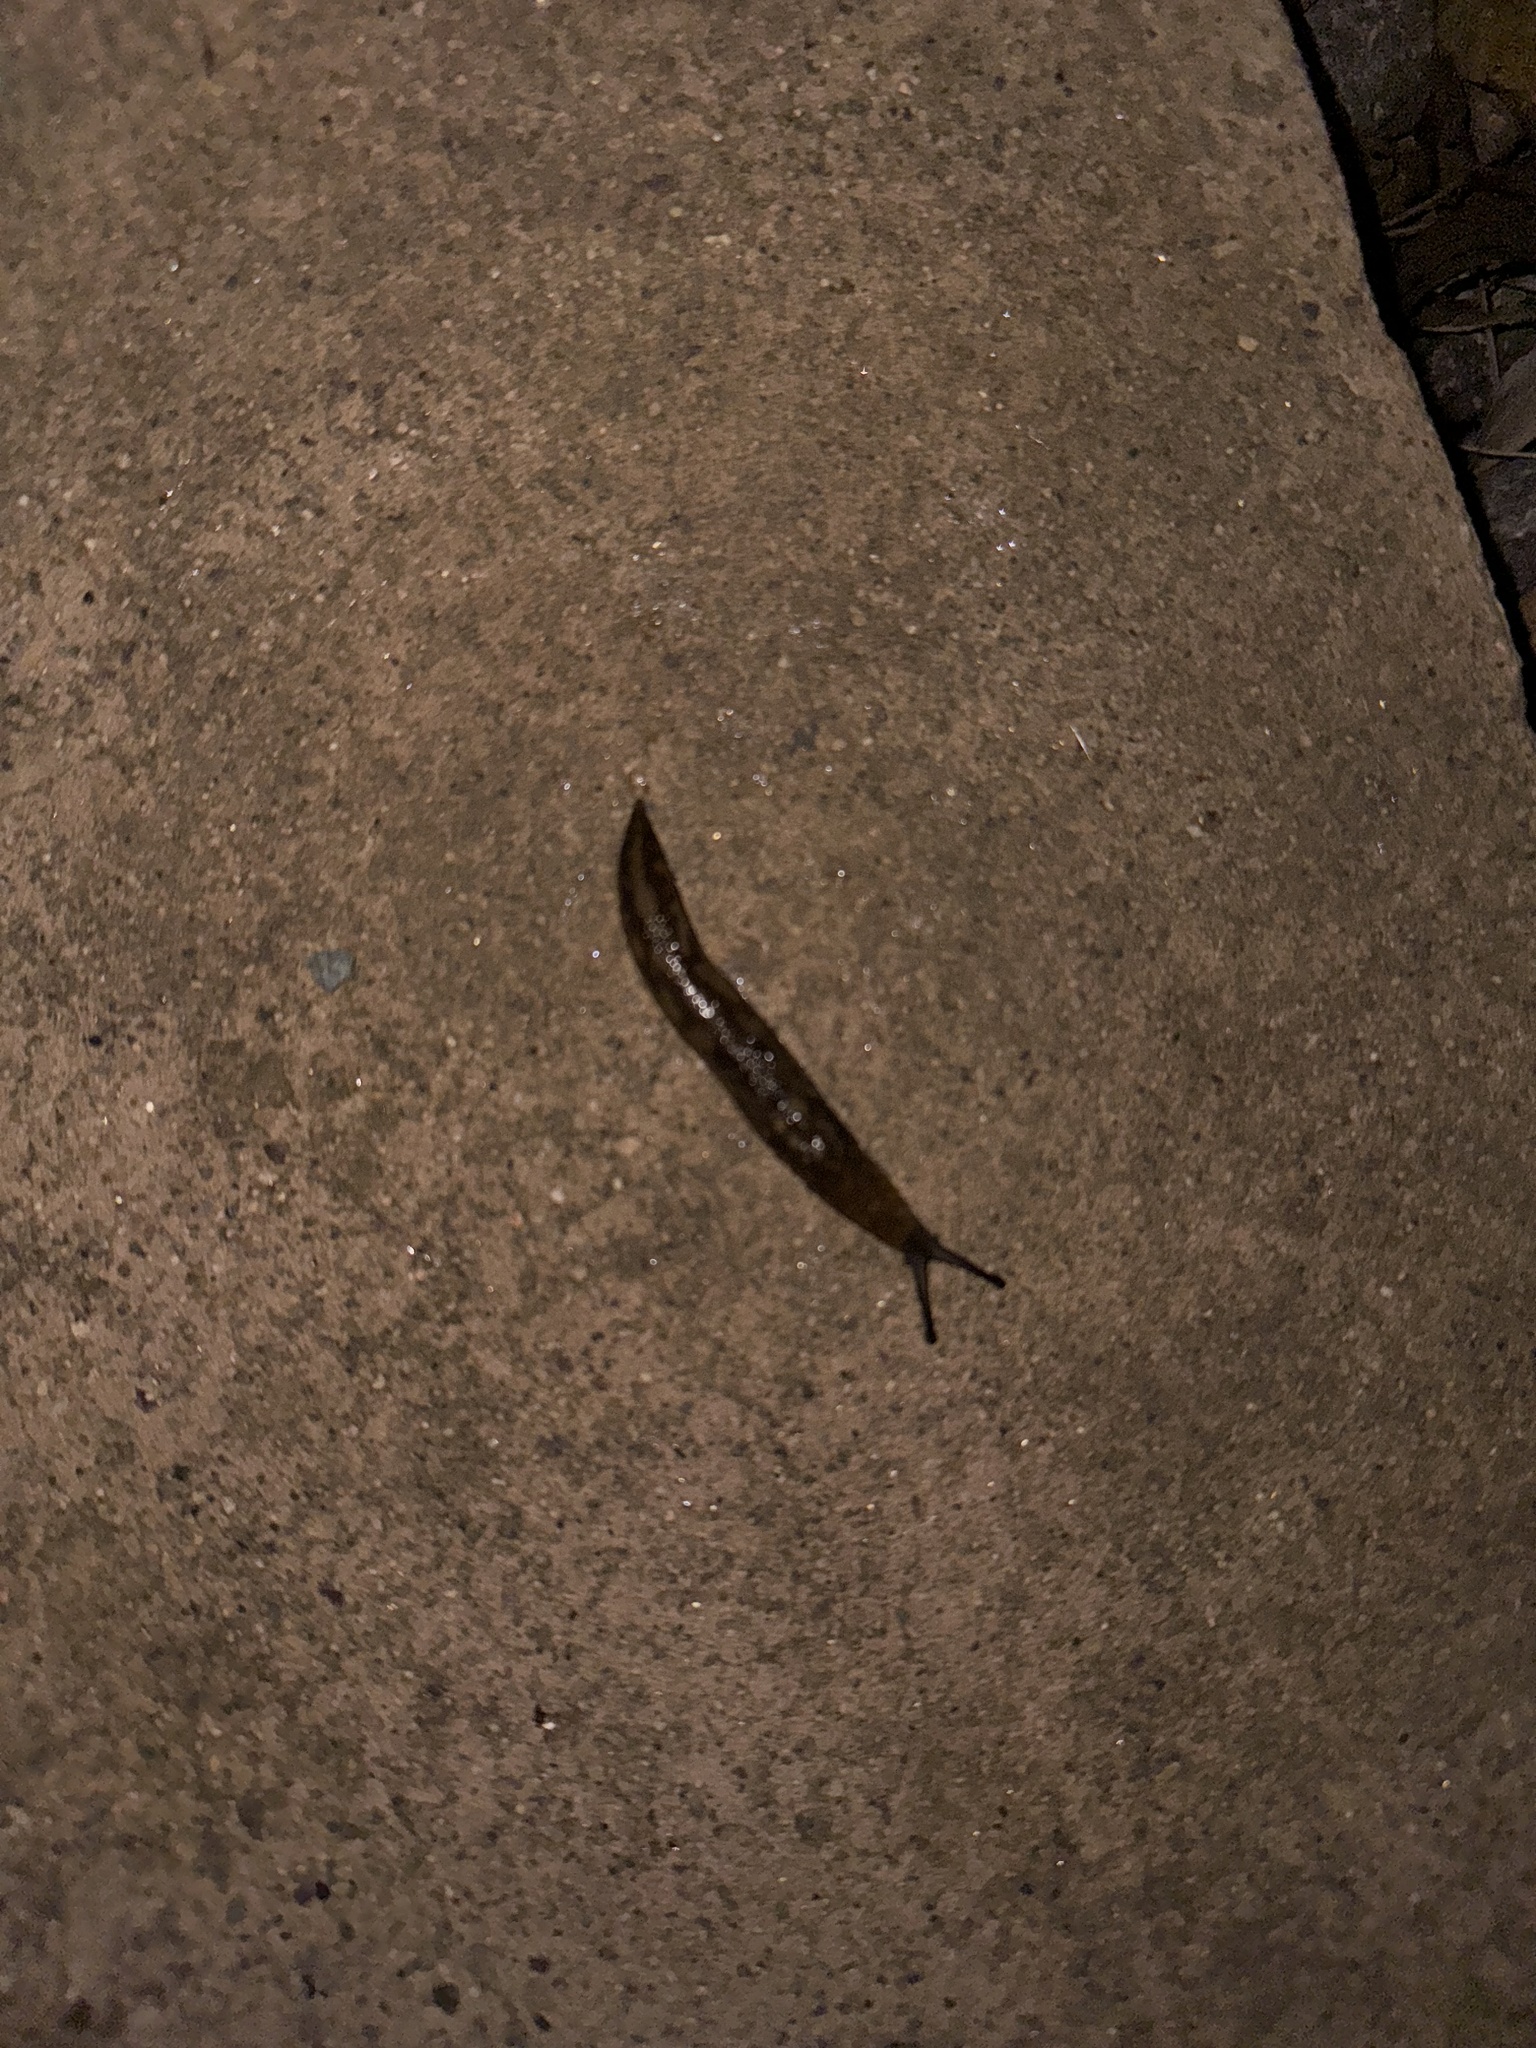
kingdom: Animalia
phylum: Mollusca
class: Gastropoda
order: Stylommatophora
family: Limacidae
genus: Limacus
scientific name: Limacus flavus
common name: Yellow gardenslug
